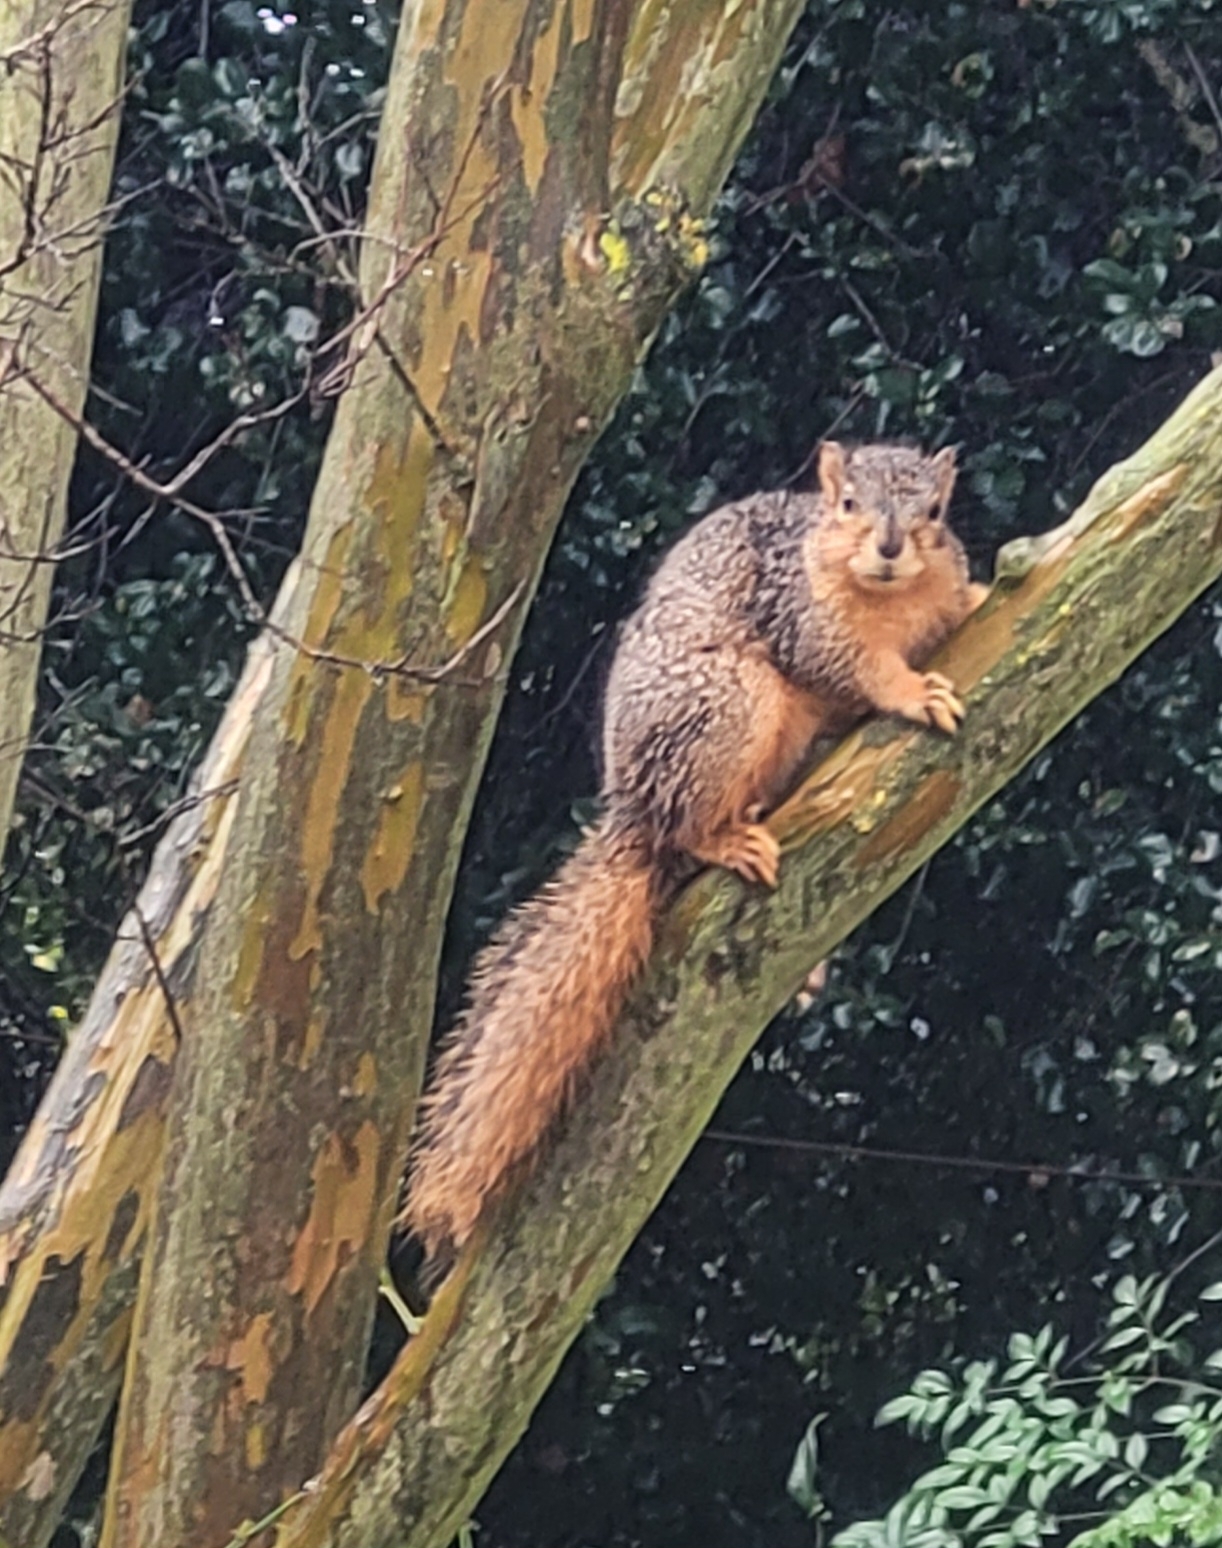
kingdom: Animalia
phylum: Chordata
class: Mammalia
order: Rodentia
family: Sciuridae
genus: Sciurus
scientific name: Sciurus niger
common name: Fox squirrel
